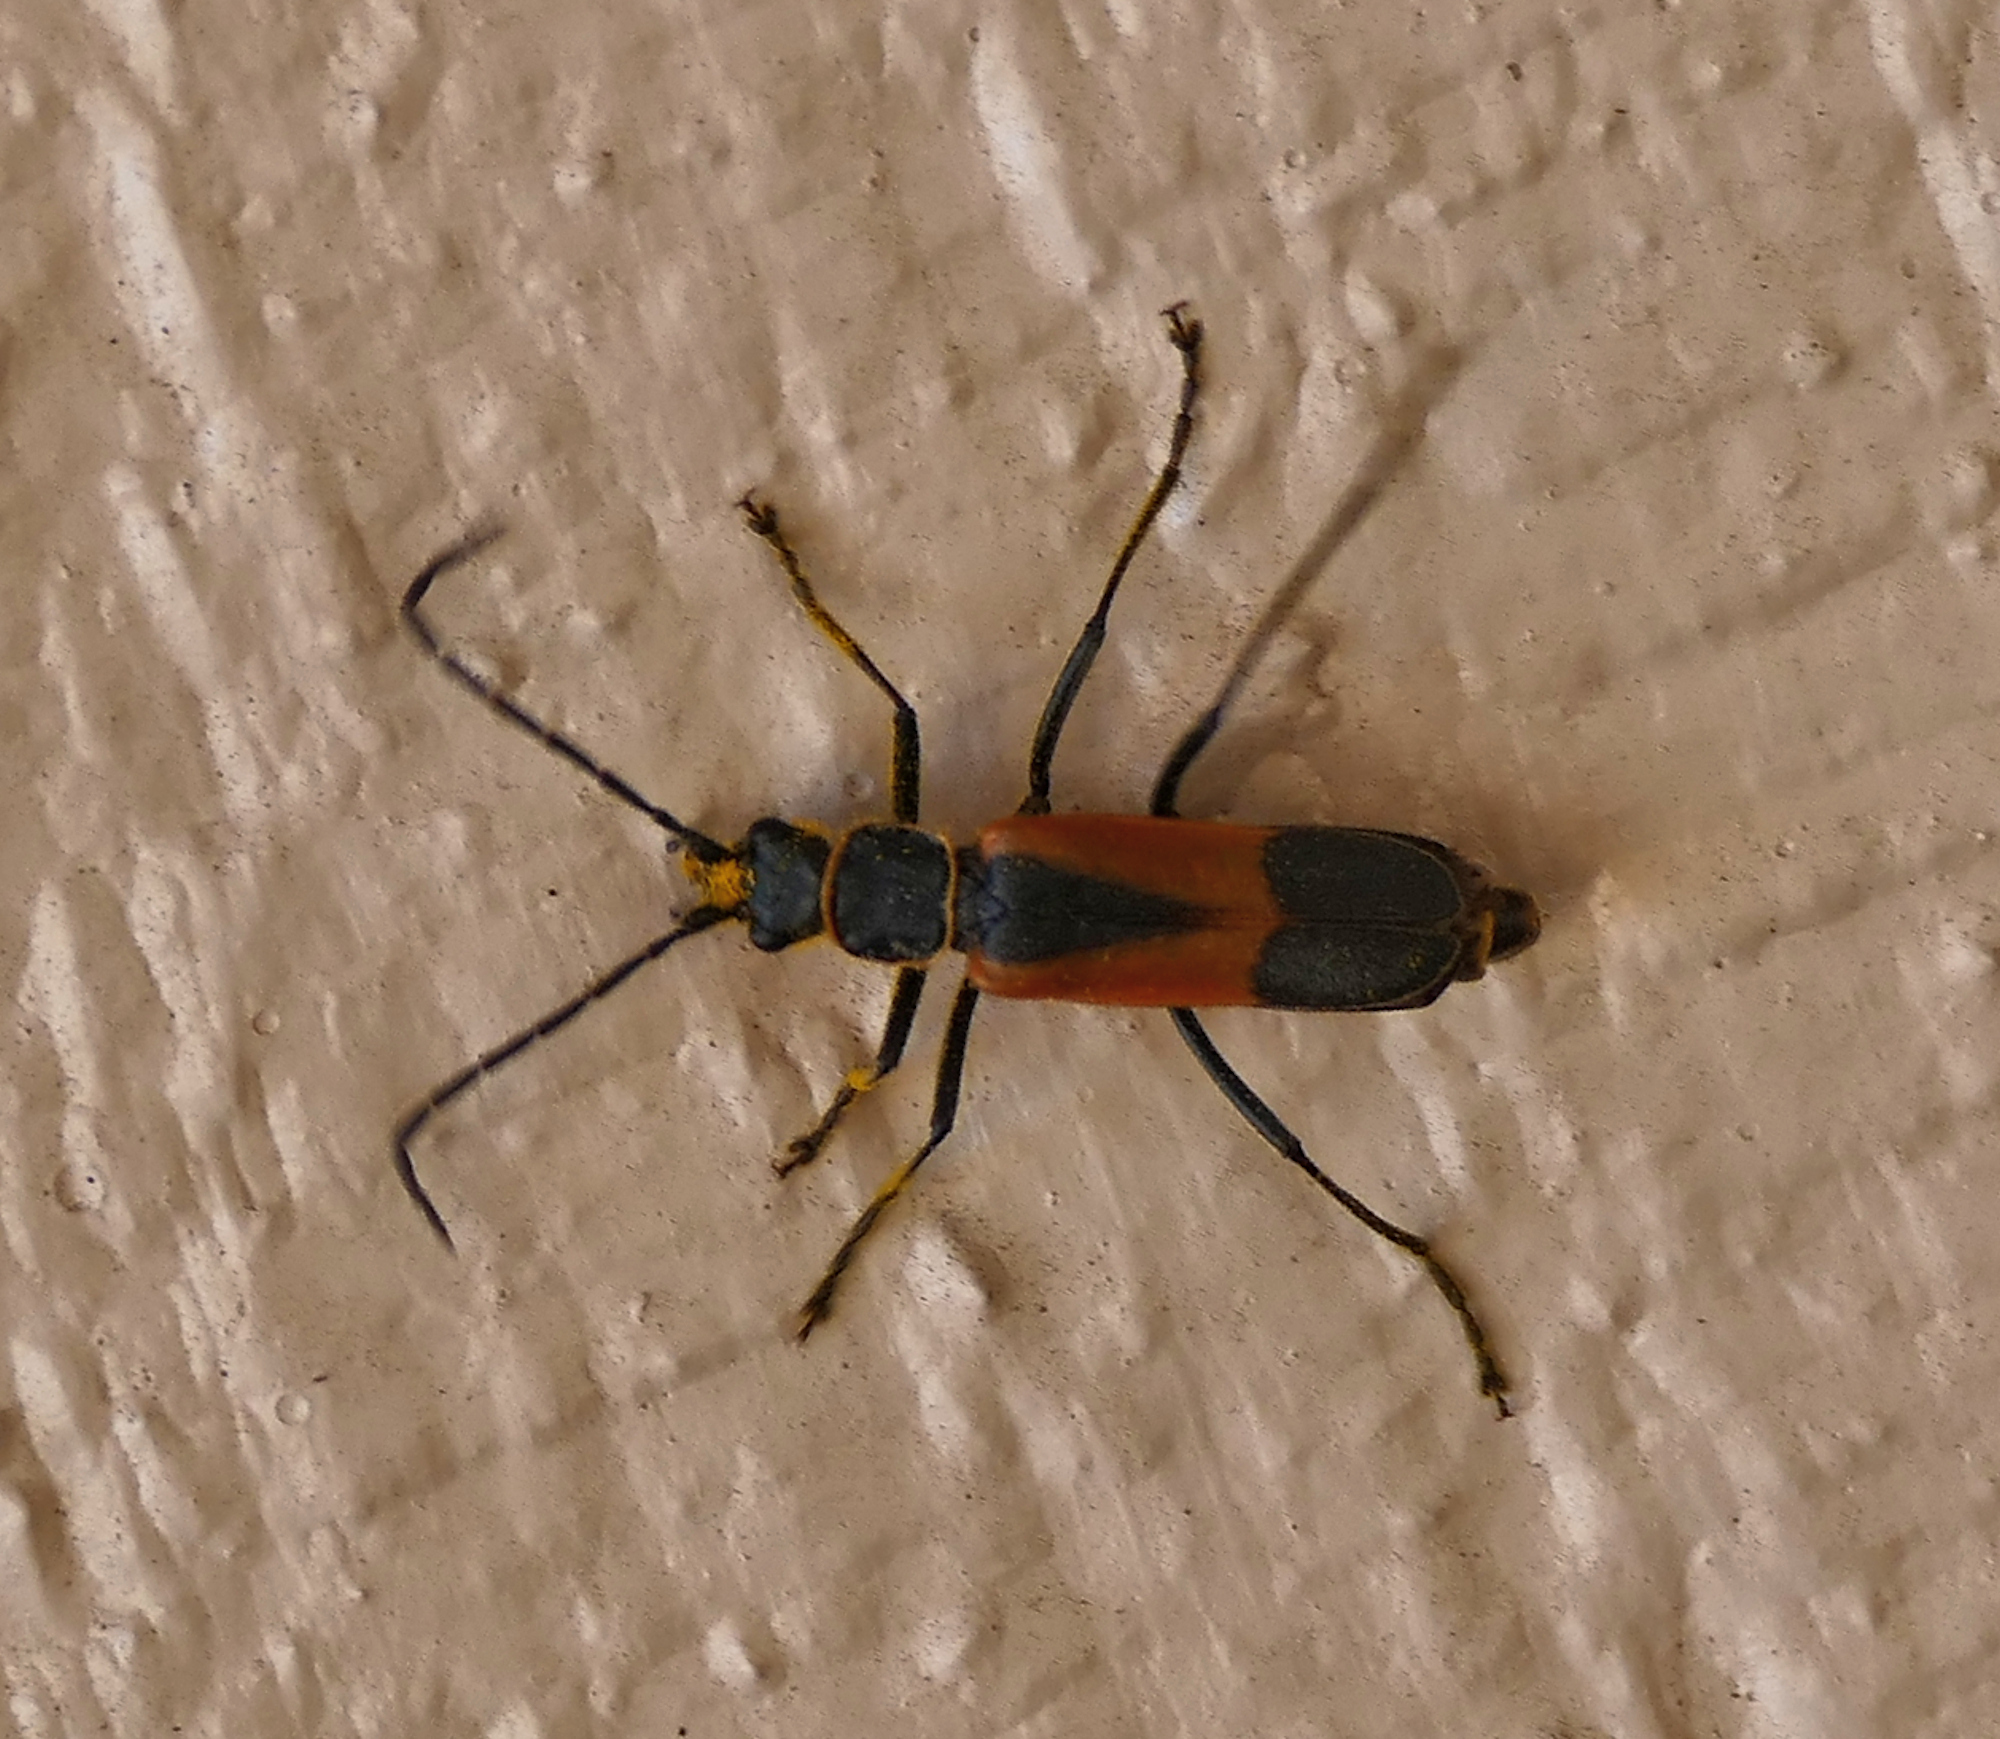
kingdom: Animalia
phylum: Arthropoda
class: Insecta
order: Coleoptera
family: Cantharidae
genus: Chauliognathus
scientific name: Chauliognathus limbicollis
